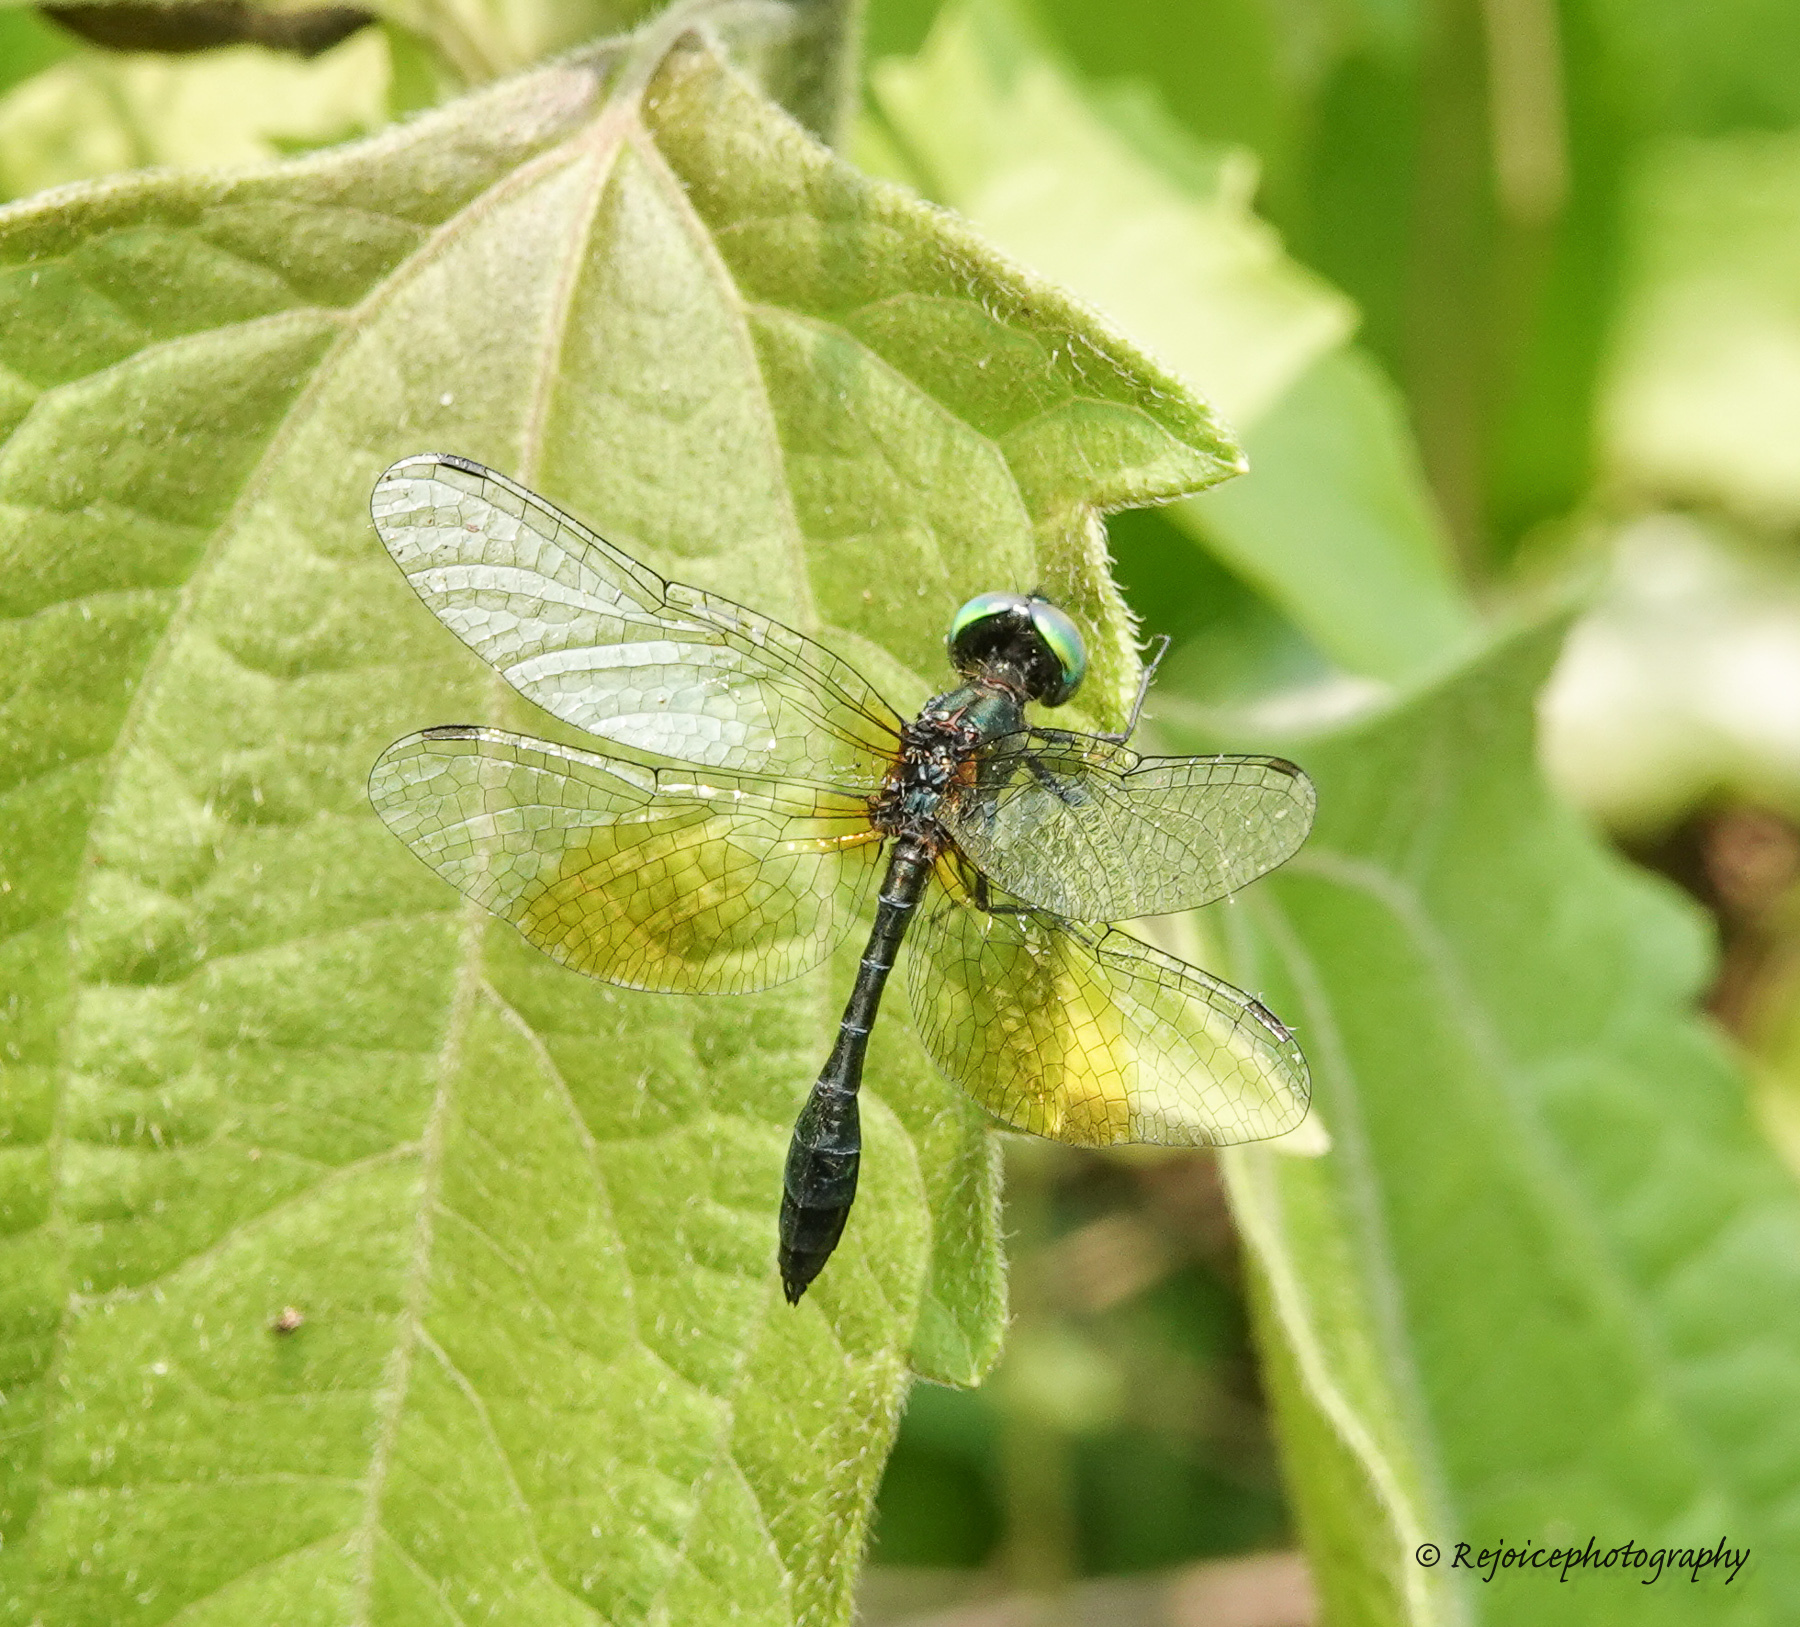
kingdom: Animalia
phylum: Arthropoda
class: Insecta
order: Odonata
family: Libellulidae
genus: Nannophyopsis
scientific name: Nannophyopsis clara
